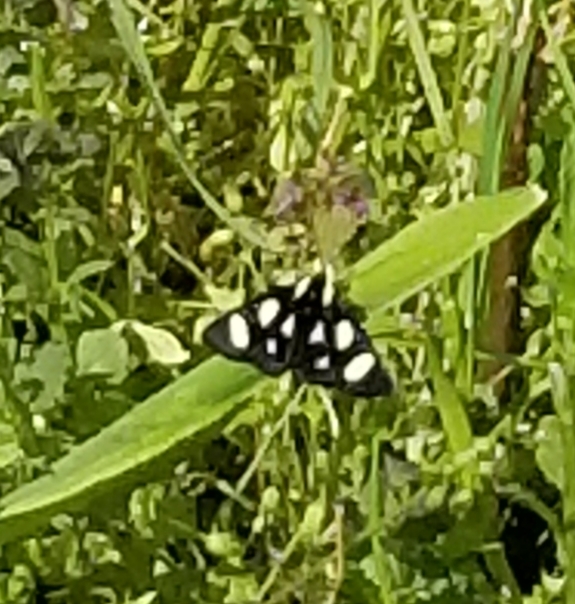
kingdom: Animalia
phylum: Arthropoda
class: Insecta
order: Lepidoptera
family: Noctuidae
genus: Alypia
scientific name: Alypia octomaculata
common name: Eight-spotted forester
